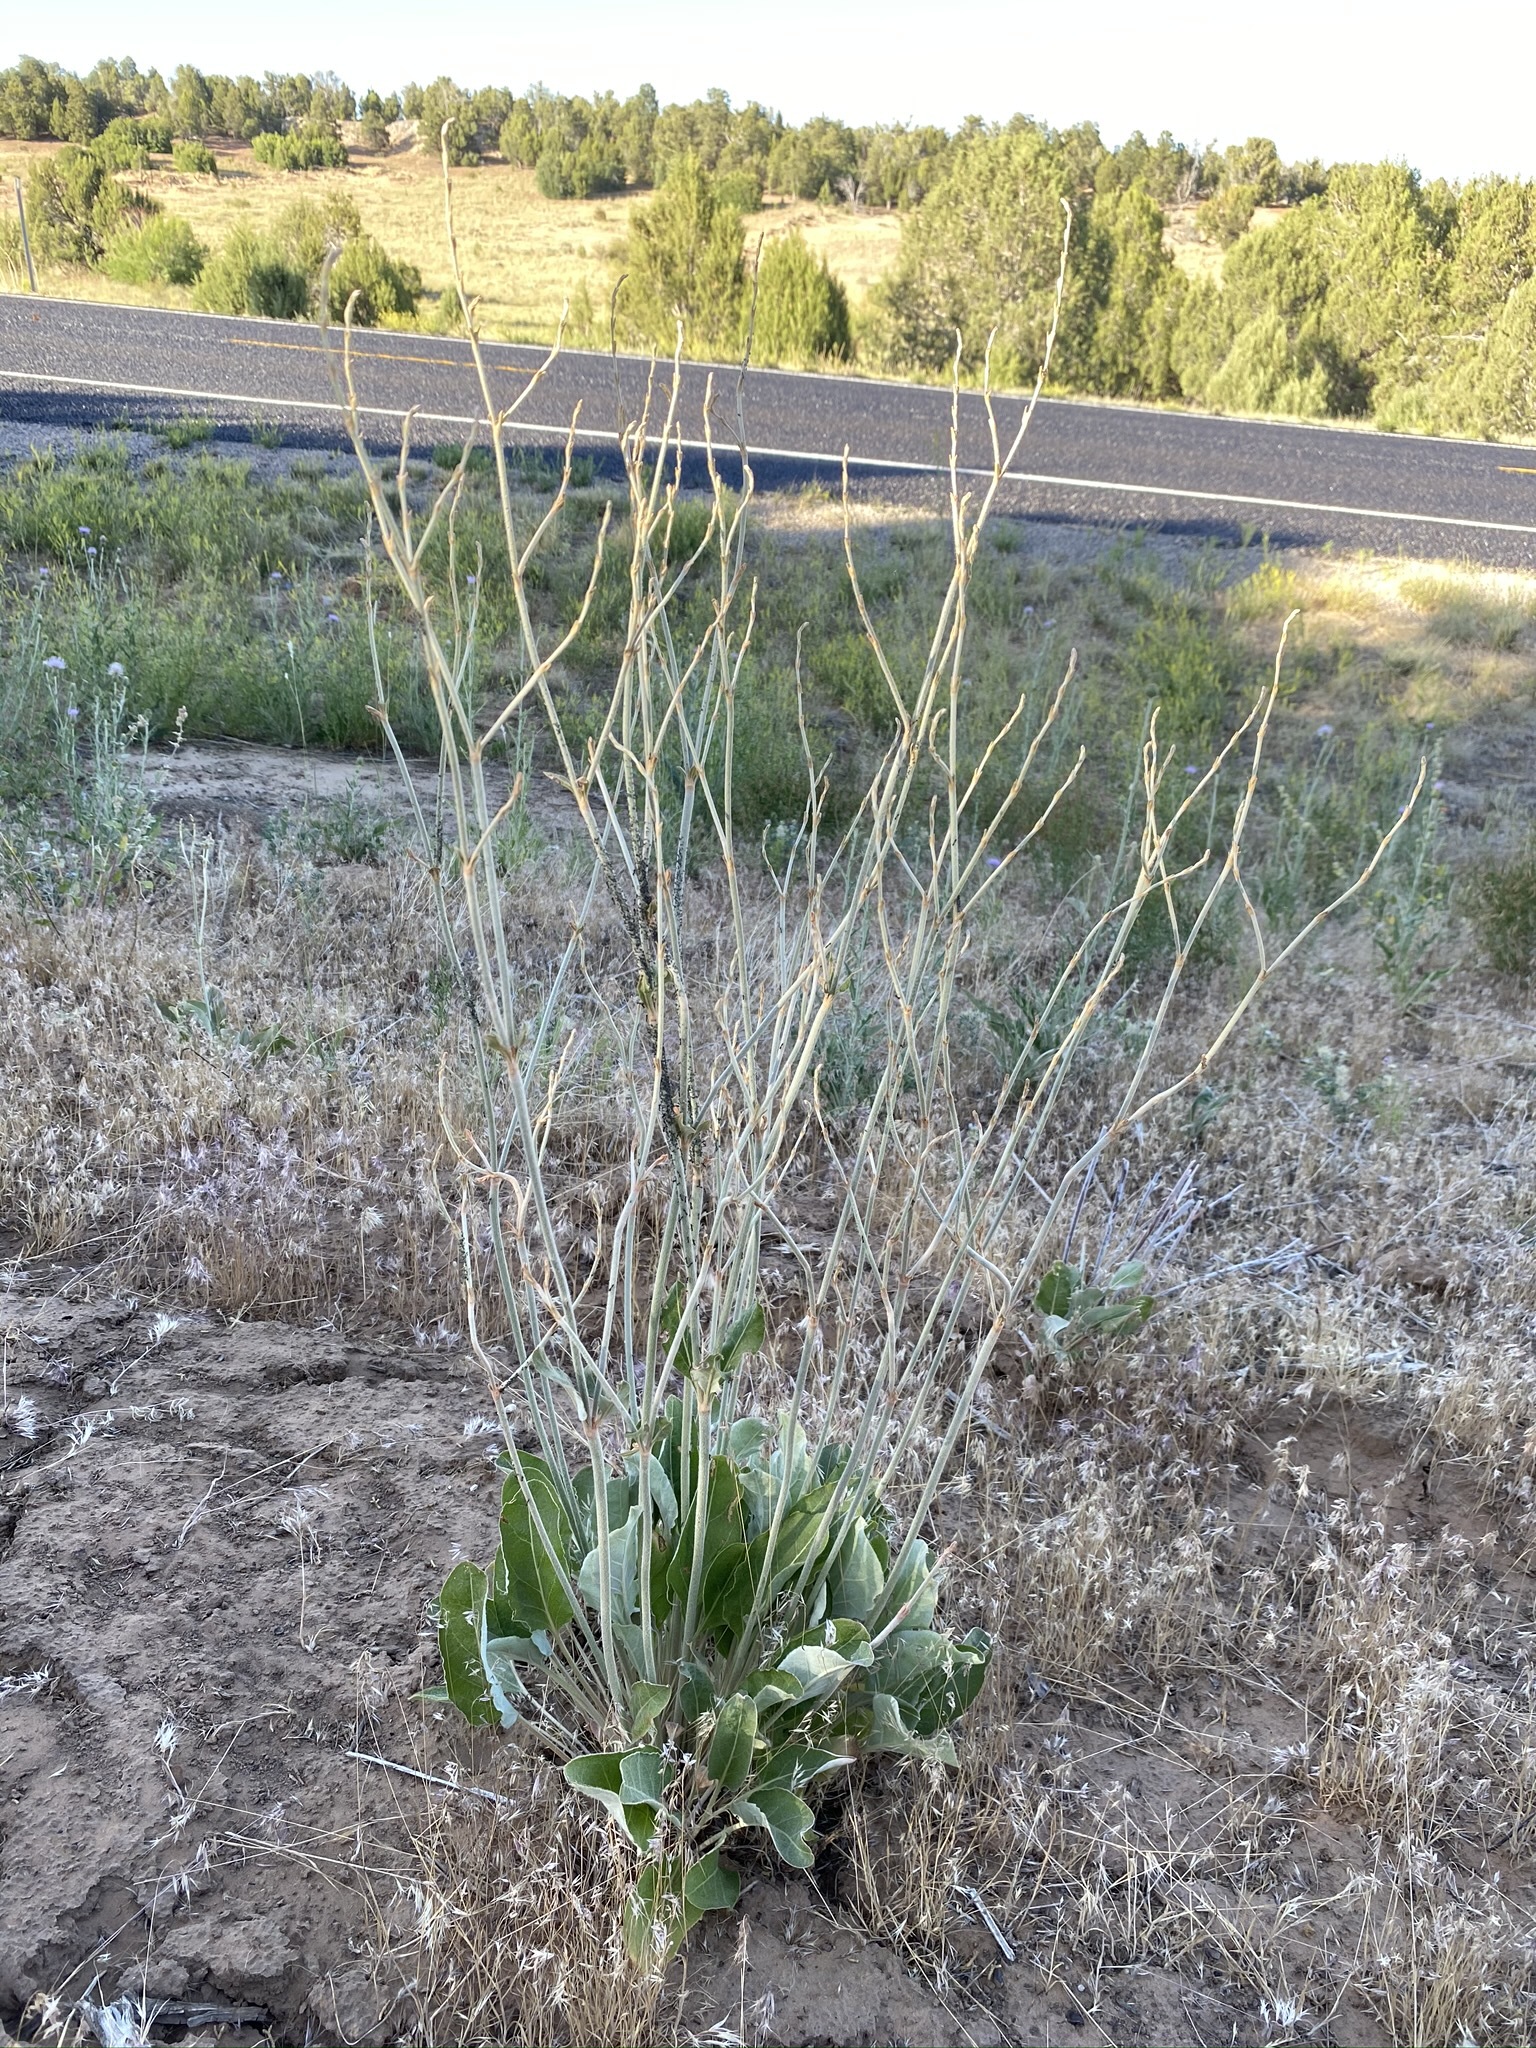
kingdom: Plantae
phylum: Tracheophyta
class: Magnoliopsida
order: Caryophyllales
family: Polygonaceae
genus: Eriogonum
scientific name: Eriogonum racemosum
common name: Redroot wild buckwheat
